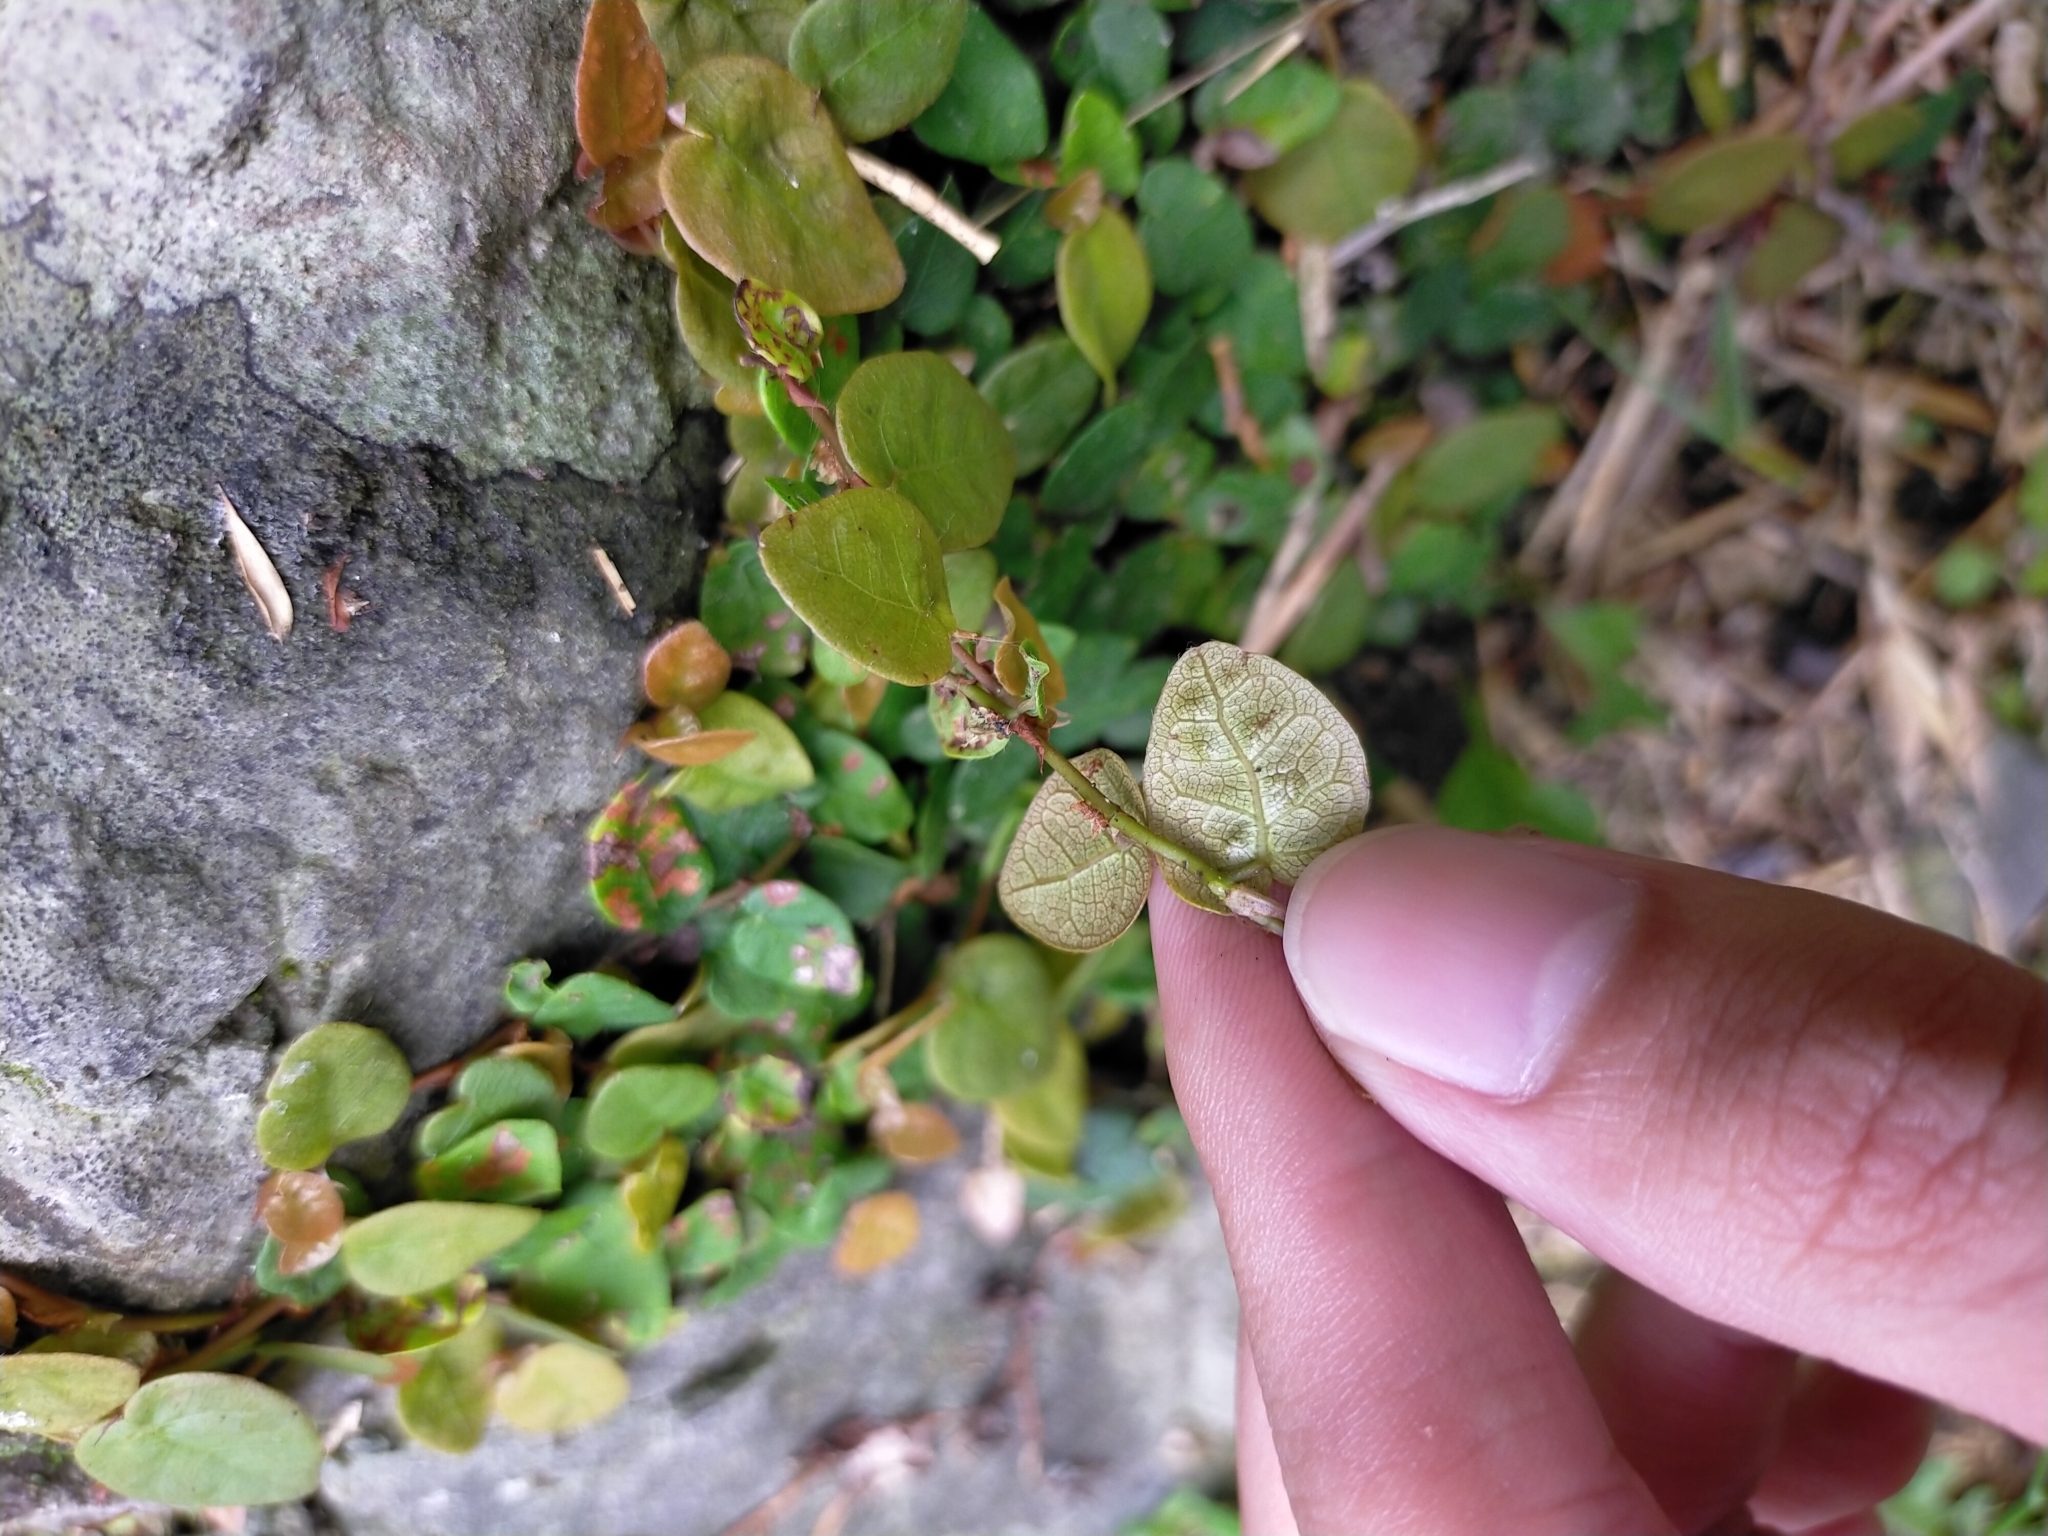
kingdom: Plantae
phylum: Tracheophyta
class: Magnoliopsida
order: Rosales
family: Moraceae
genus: Ficus
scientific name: Ficus pumila
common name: Climbingfig
